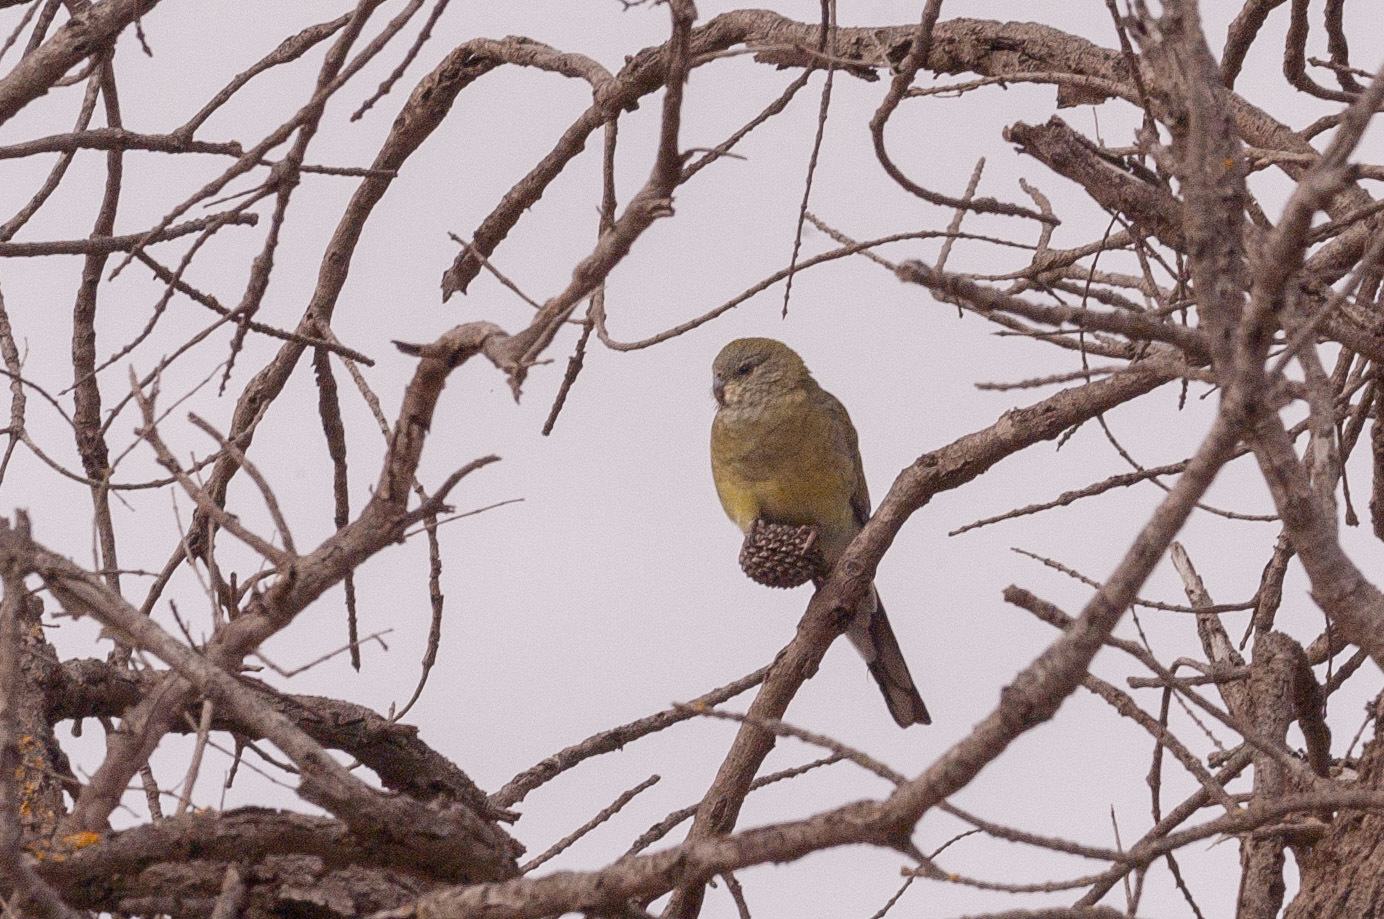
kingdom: Animalia
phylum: Chordata
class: Aves
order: Psittaciformes
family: Psittacidae
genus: Psephotus
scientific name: Psephotus haematonotus
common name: Red-rumped parrot
